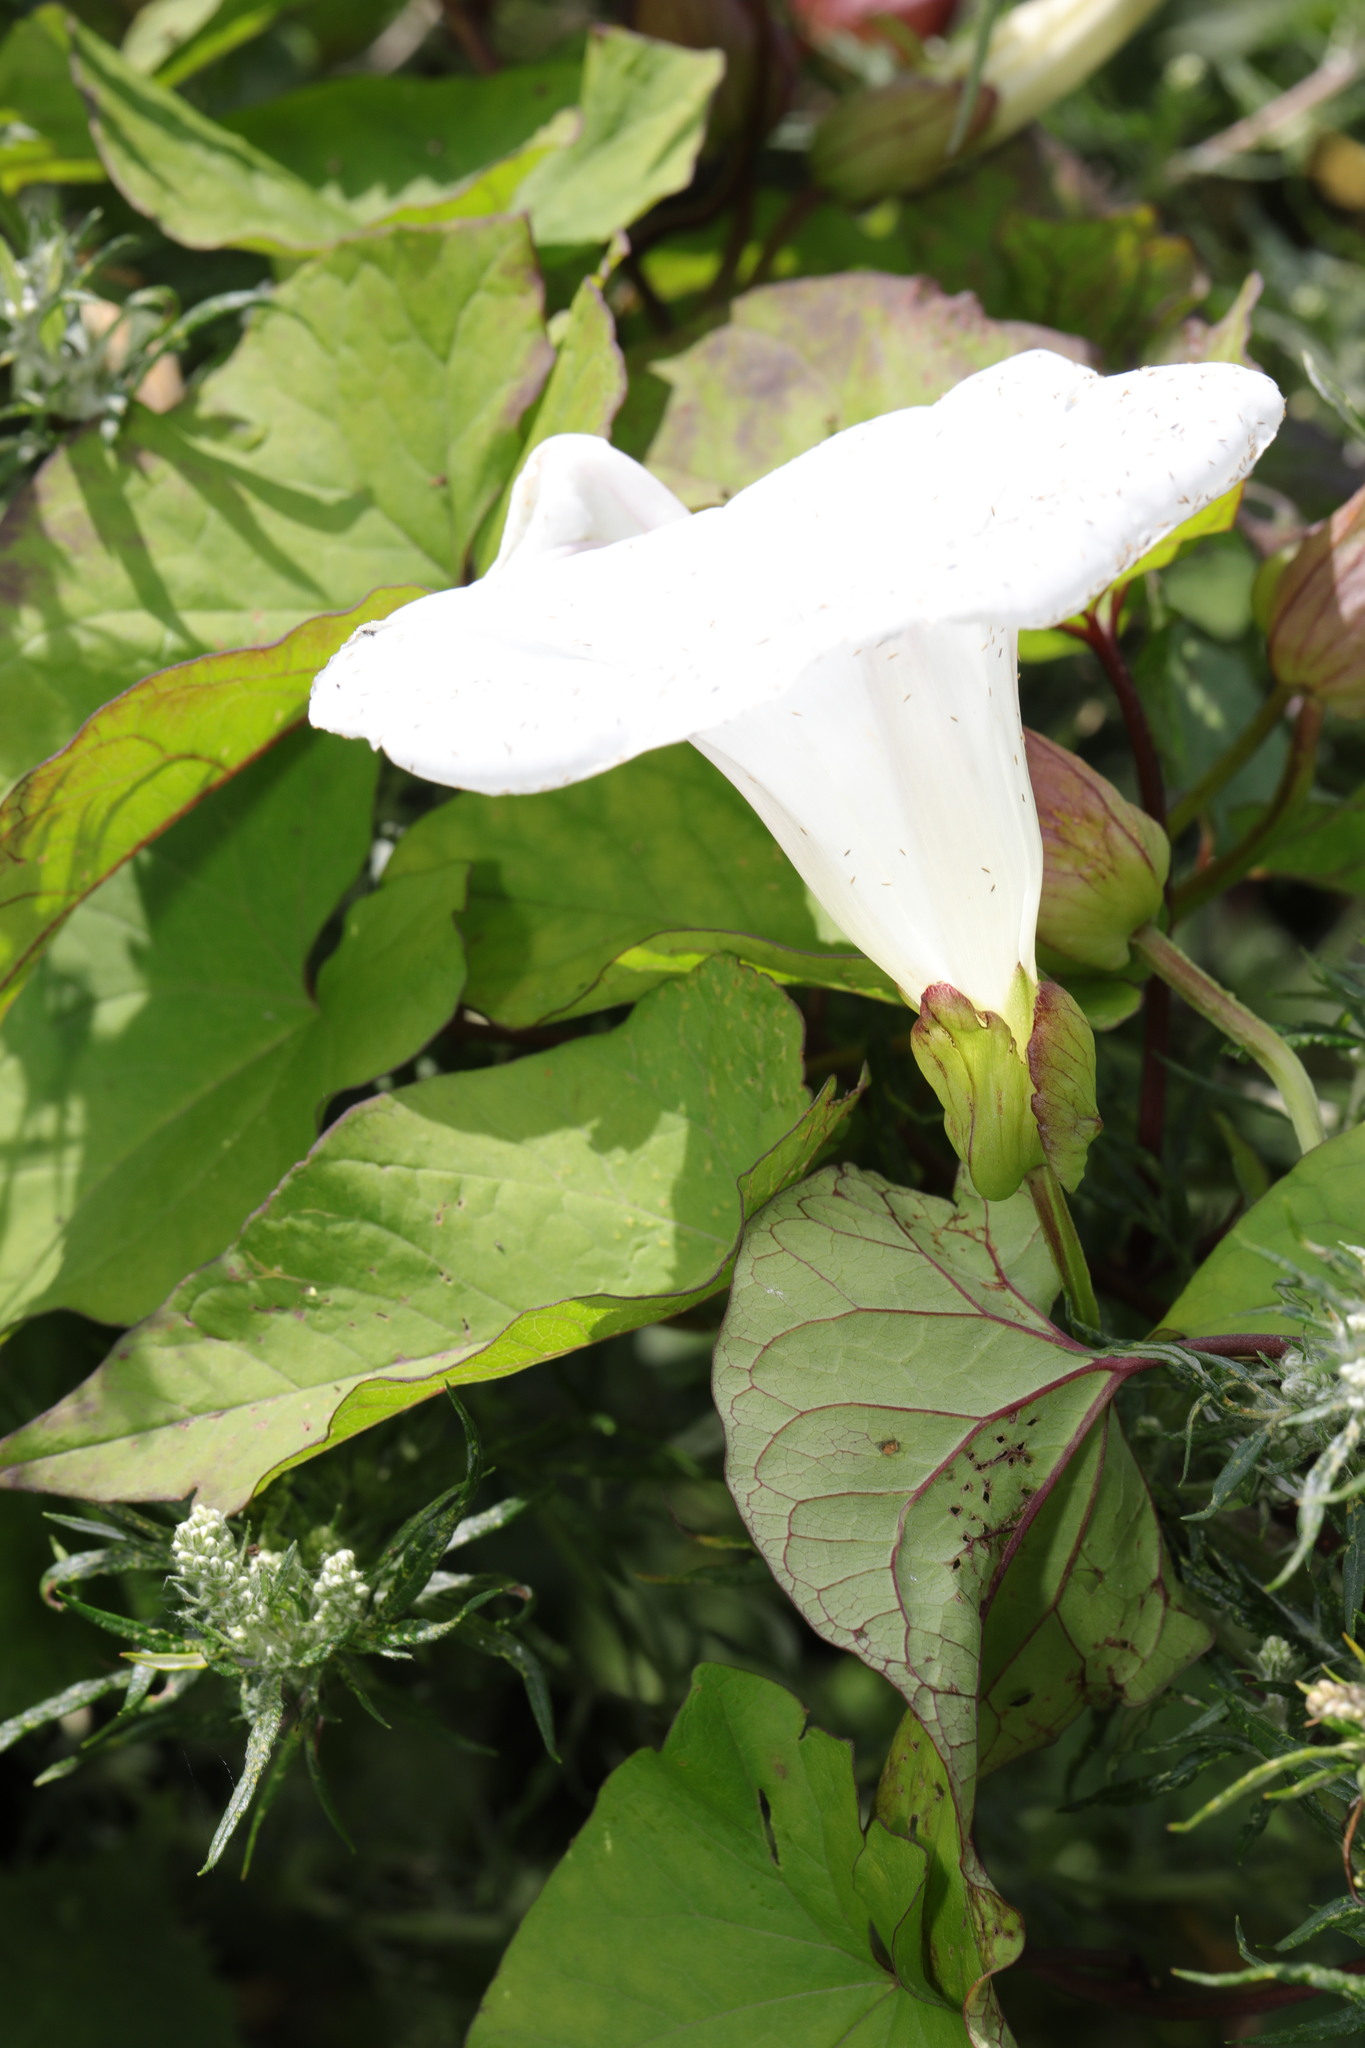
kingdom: Plantae
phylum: Tracheophyta
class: Magnoliopsida
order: Solanales
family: Convolvulaceae
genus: Calystegia
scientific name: Calystegia silvatica
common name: Large bindweed
